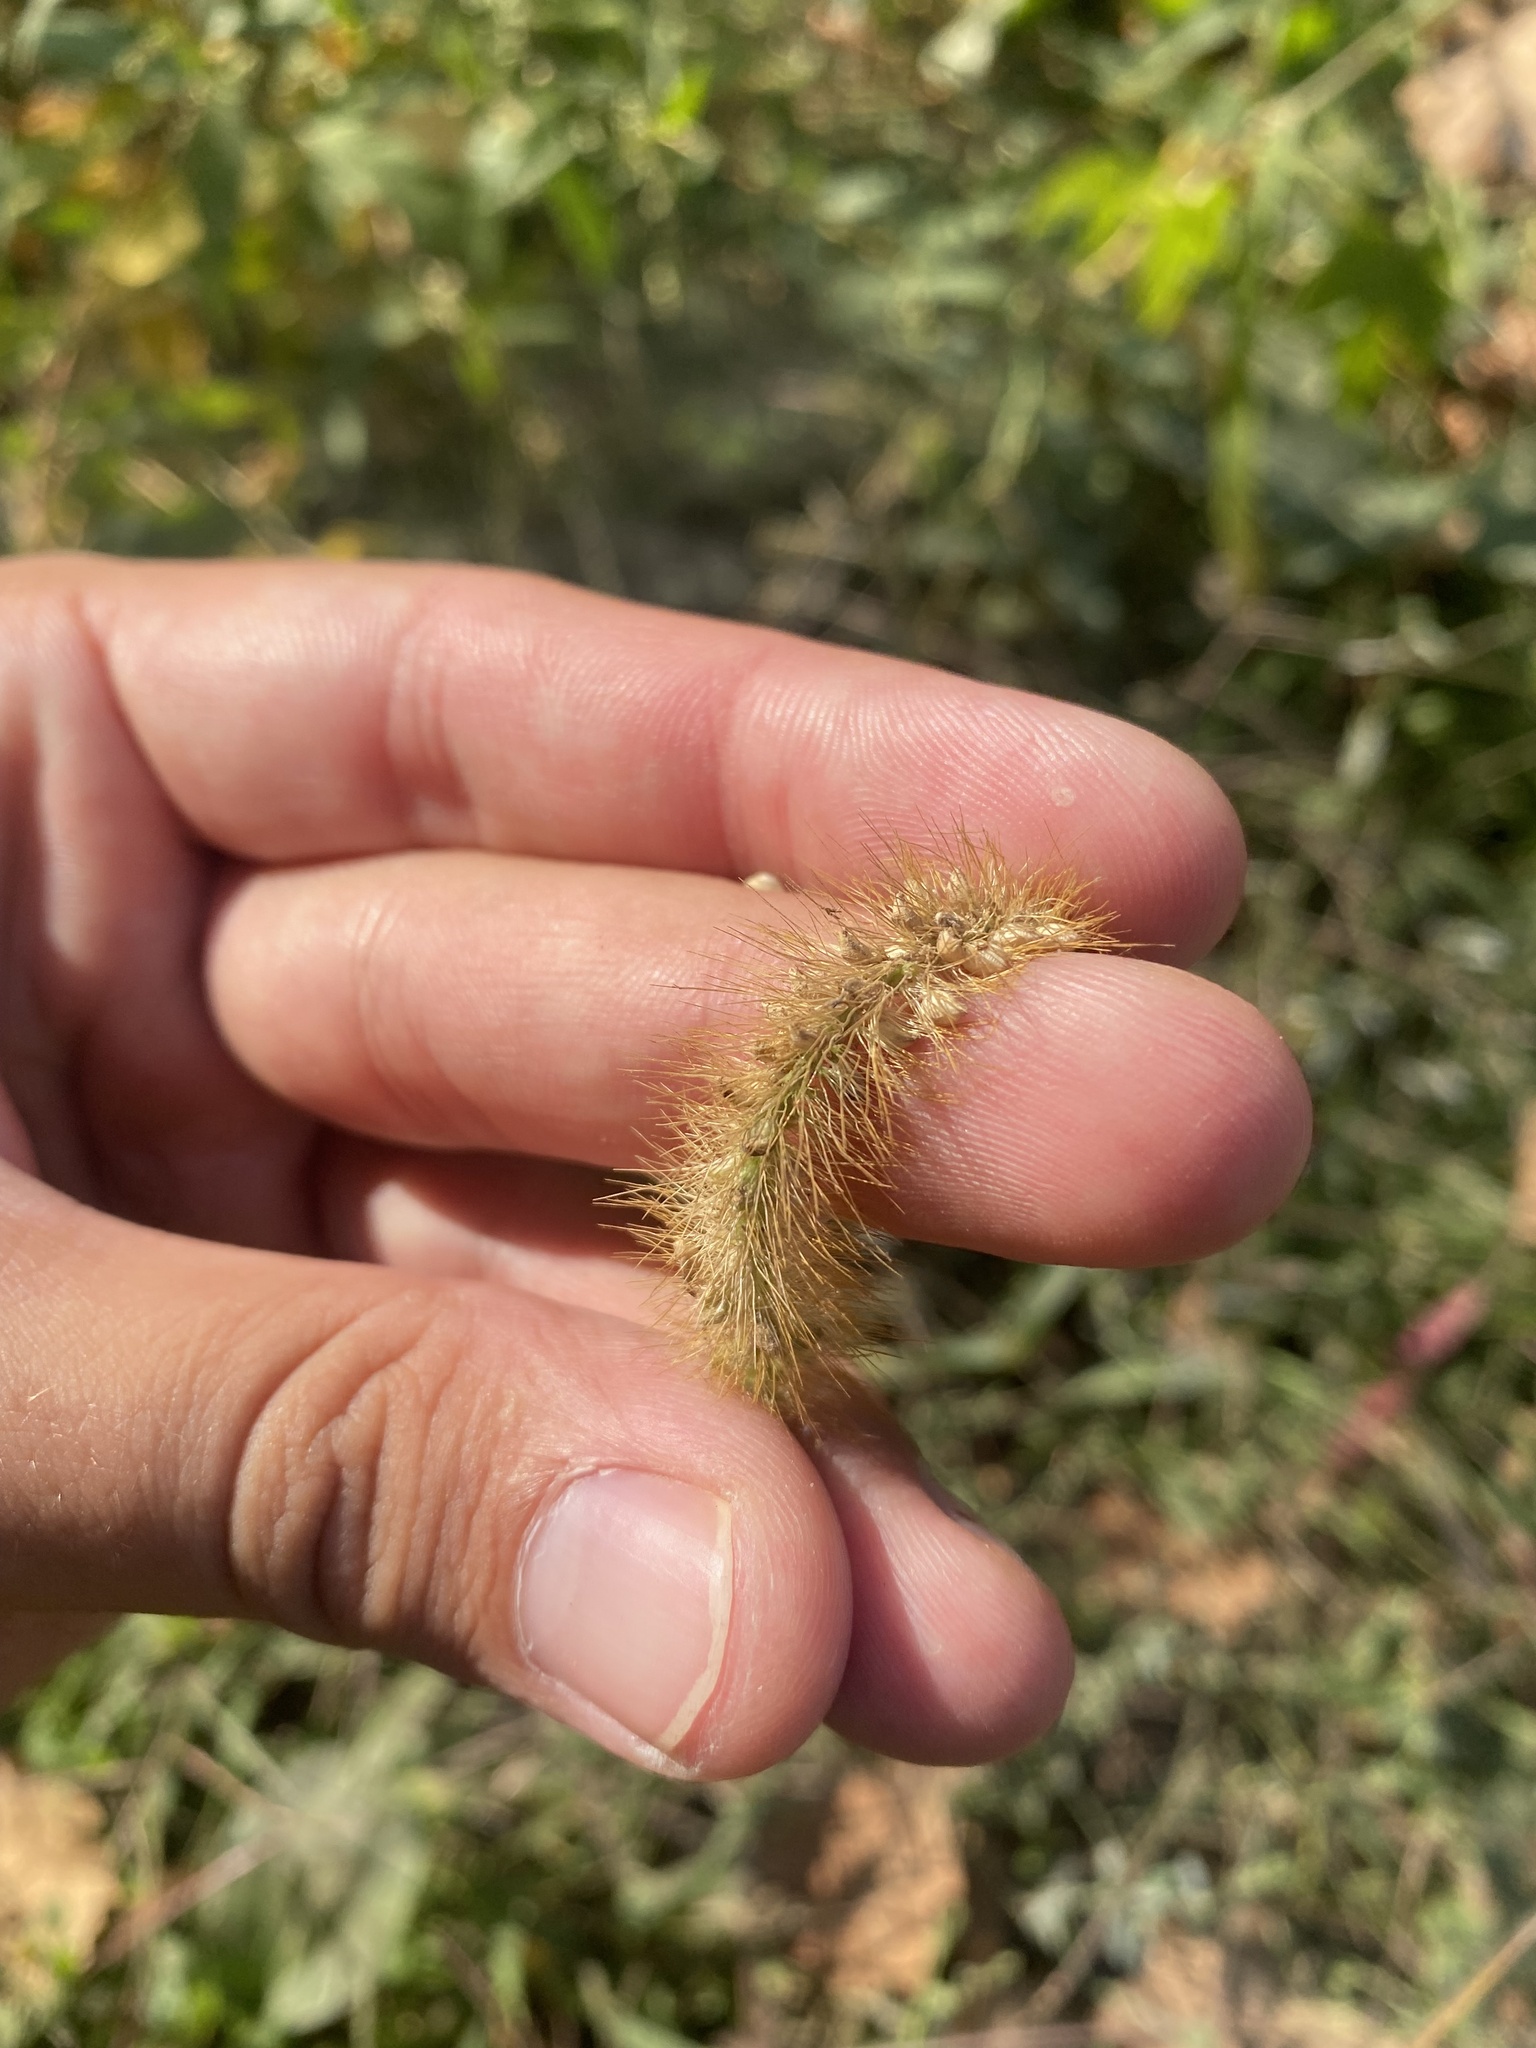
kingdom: Plantae
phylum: Tracheophyta
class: Liliopsida
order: Poales
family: Poaceae
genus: Setaria
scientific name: Setaria pumila
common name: Yellow bristle-grass
